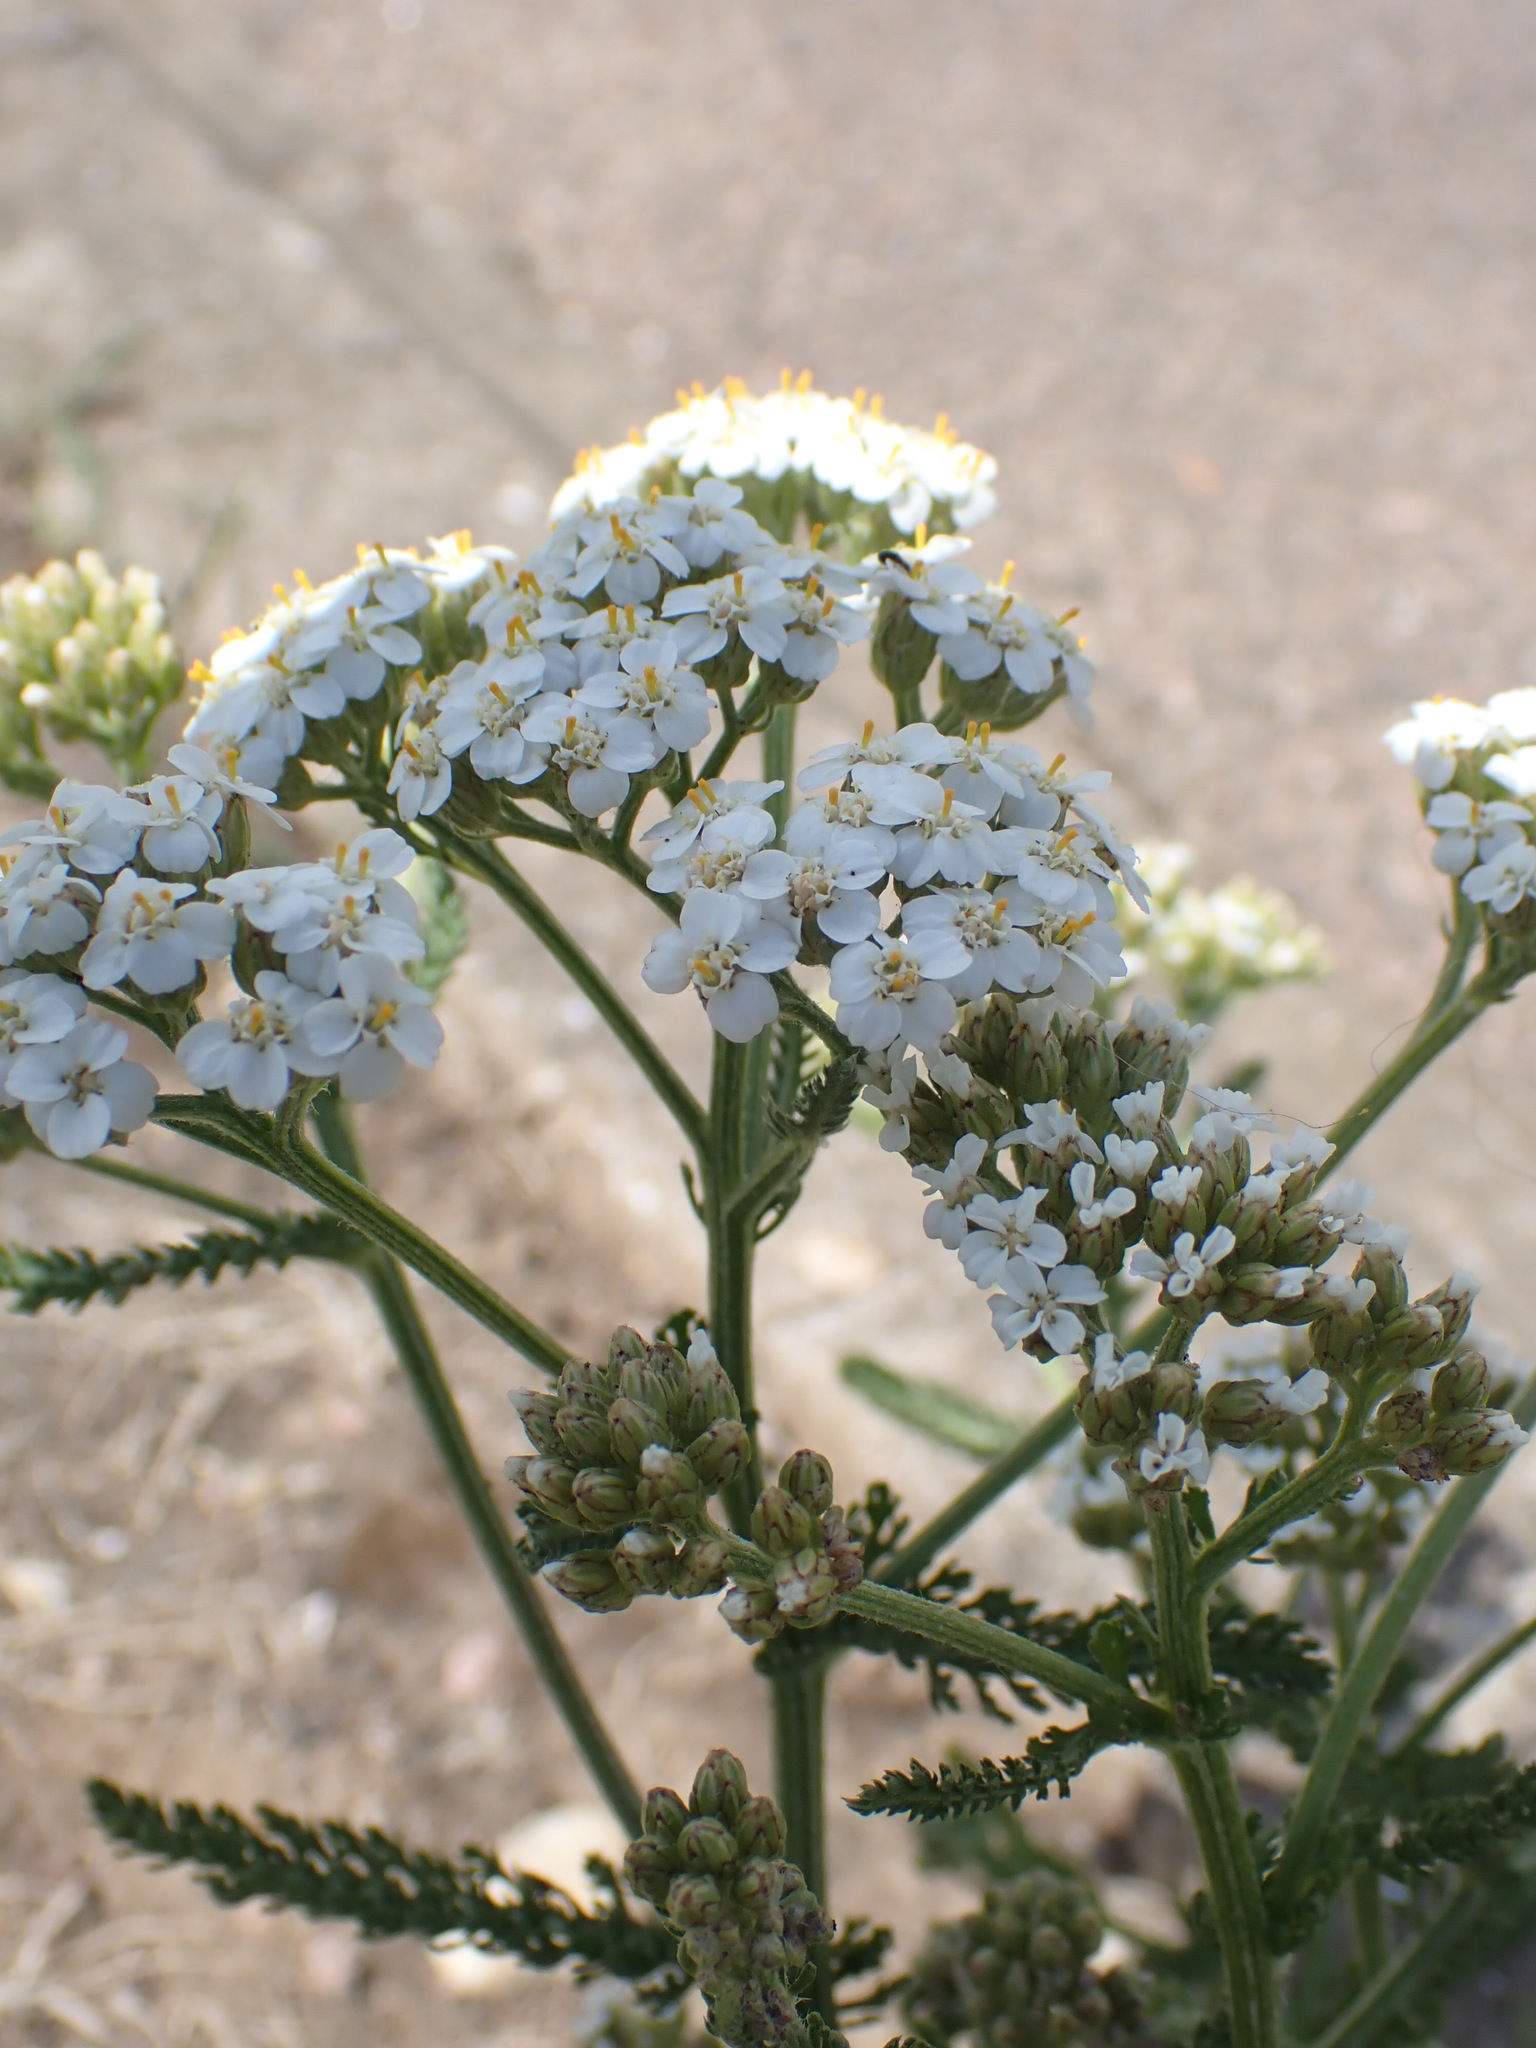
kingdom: Plantae
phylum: Tracheophyta
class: Magnoliopsida
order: Asterales
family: Asteraceae
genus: Achillea
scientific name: Achillea millefolium
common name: Yarrow
